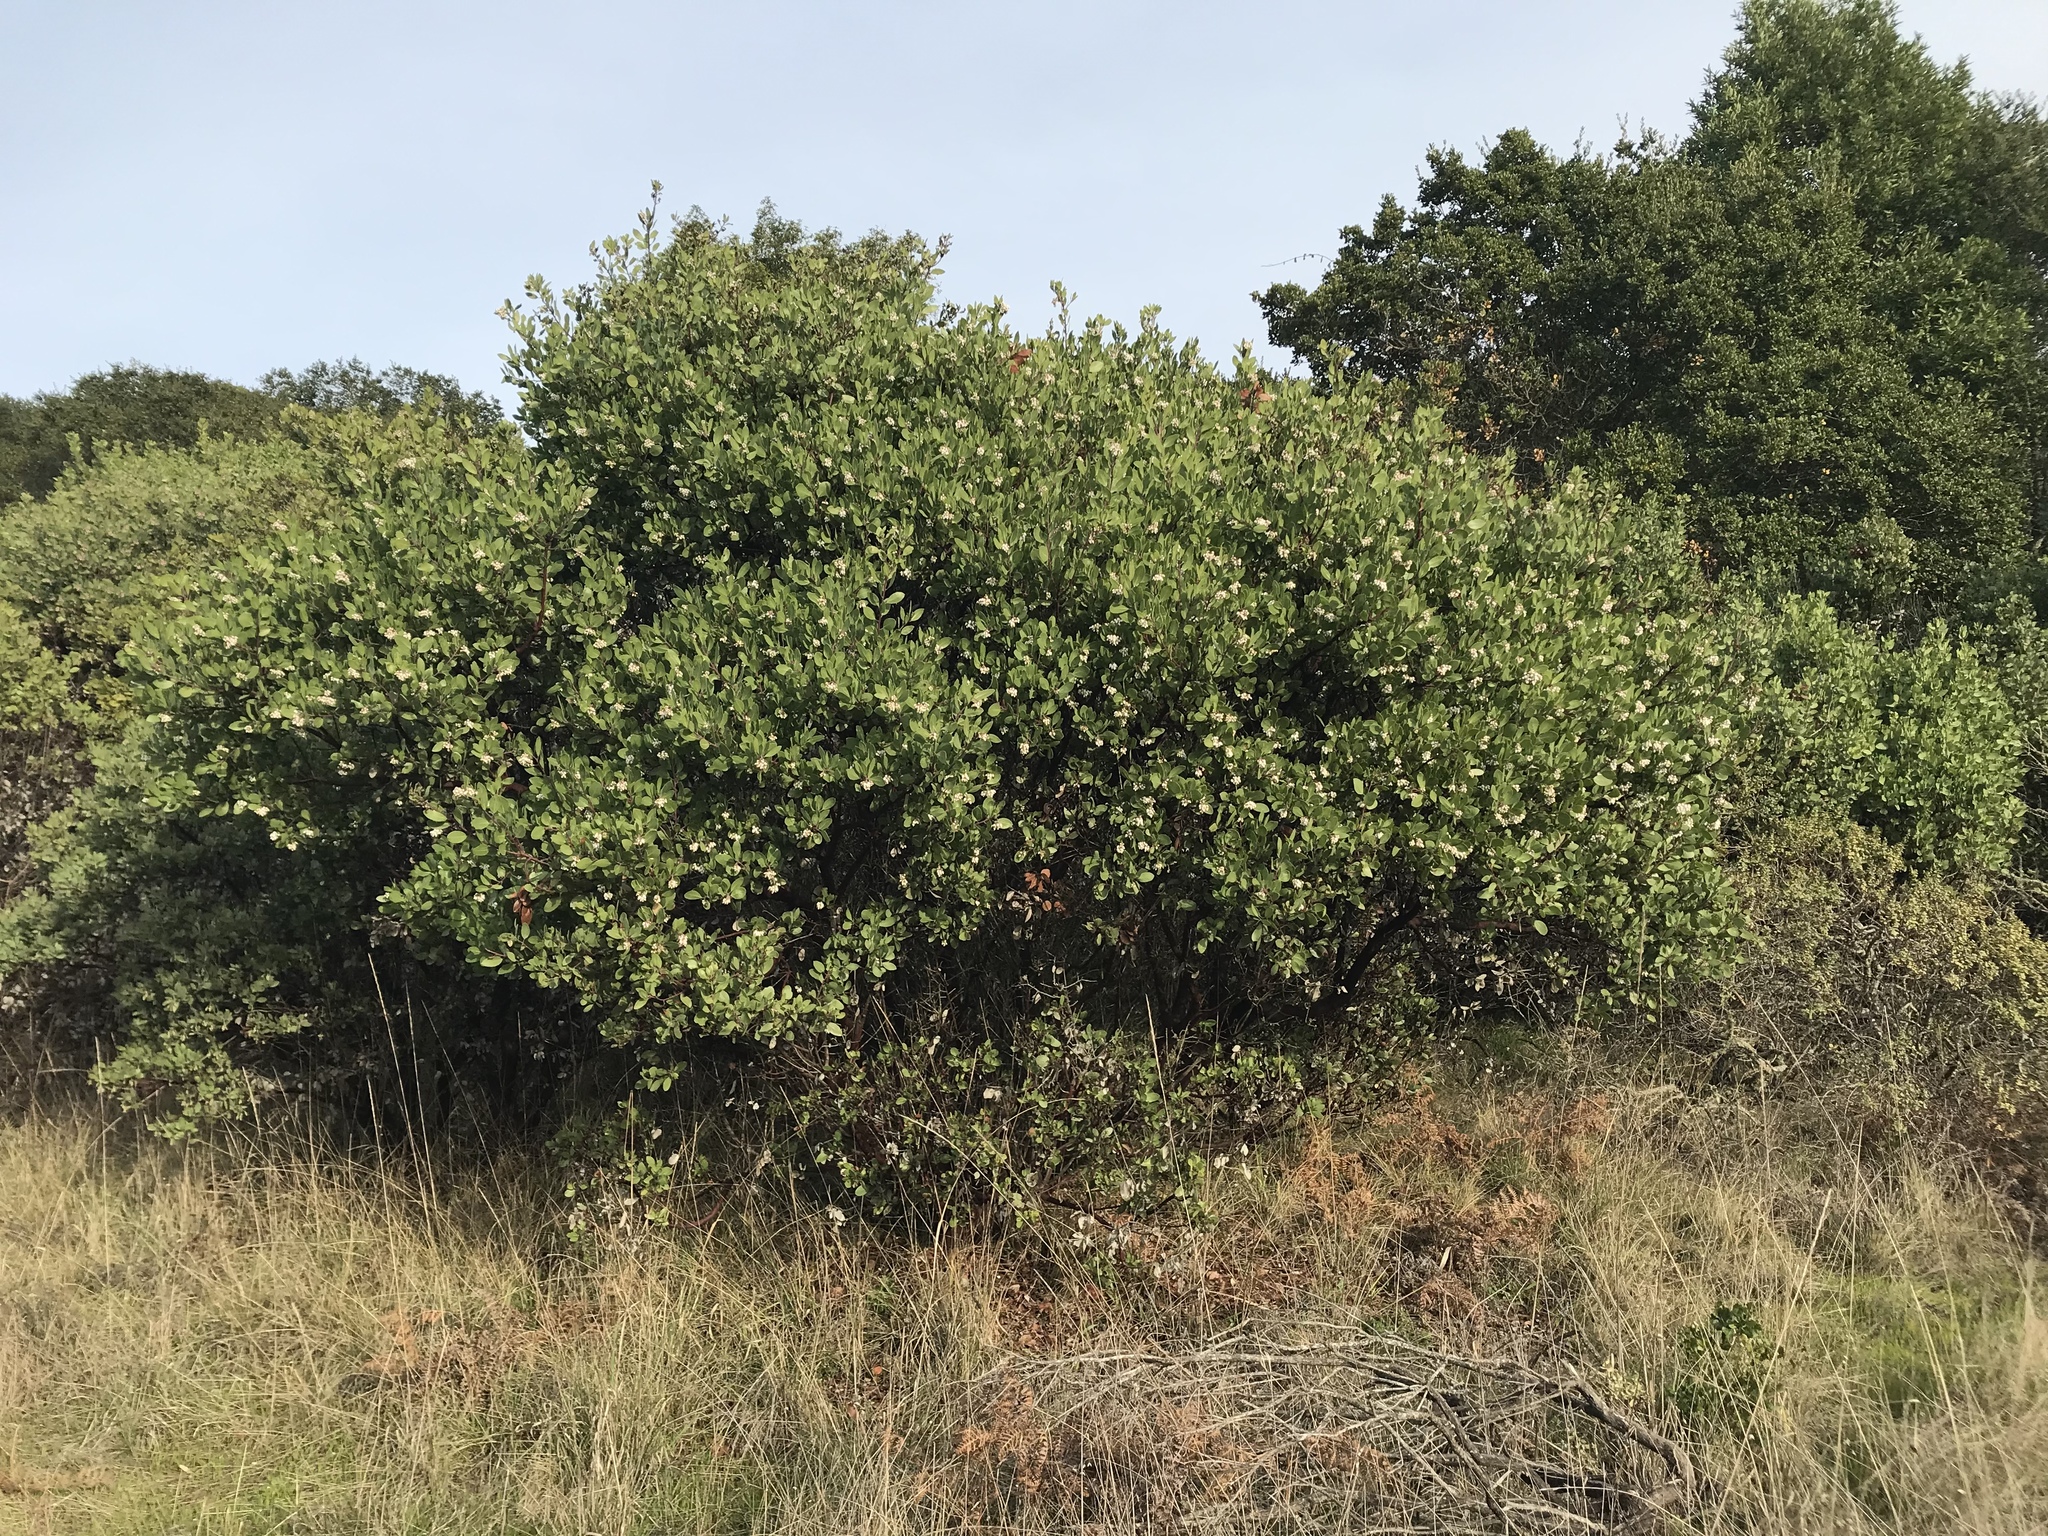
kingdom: Plantae
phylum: Tracheophyta
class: Magnoliopsida
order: Ericales
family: Ericaceae
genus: Arctostaphylos
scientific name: Arctostaphylos manzanita
